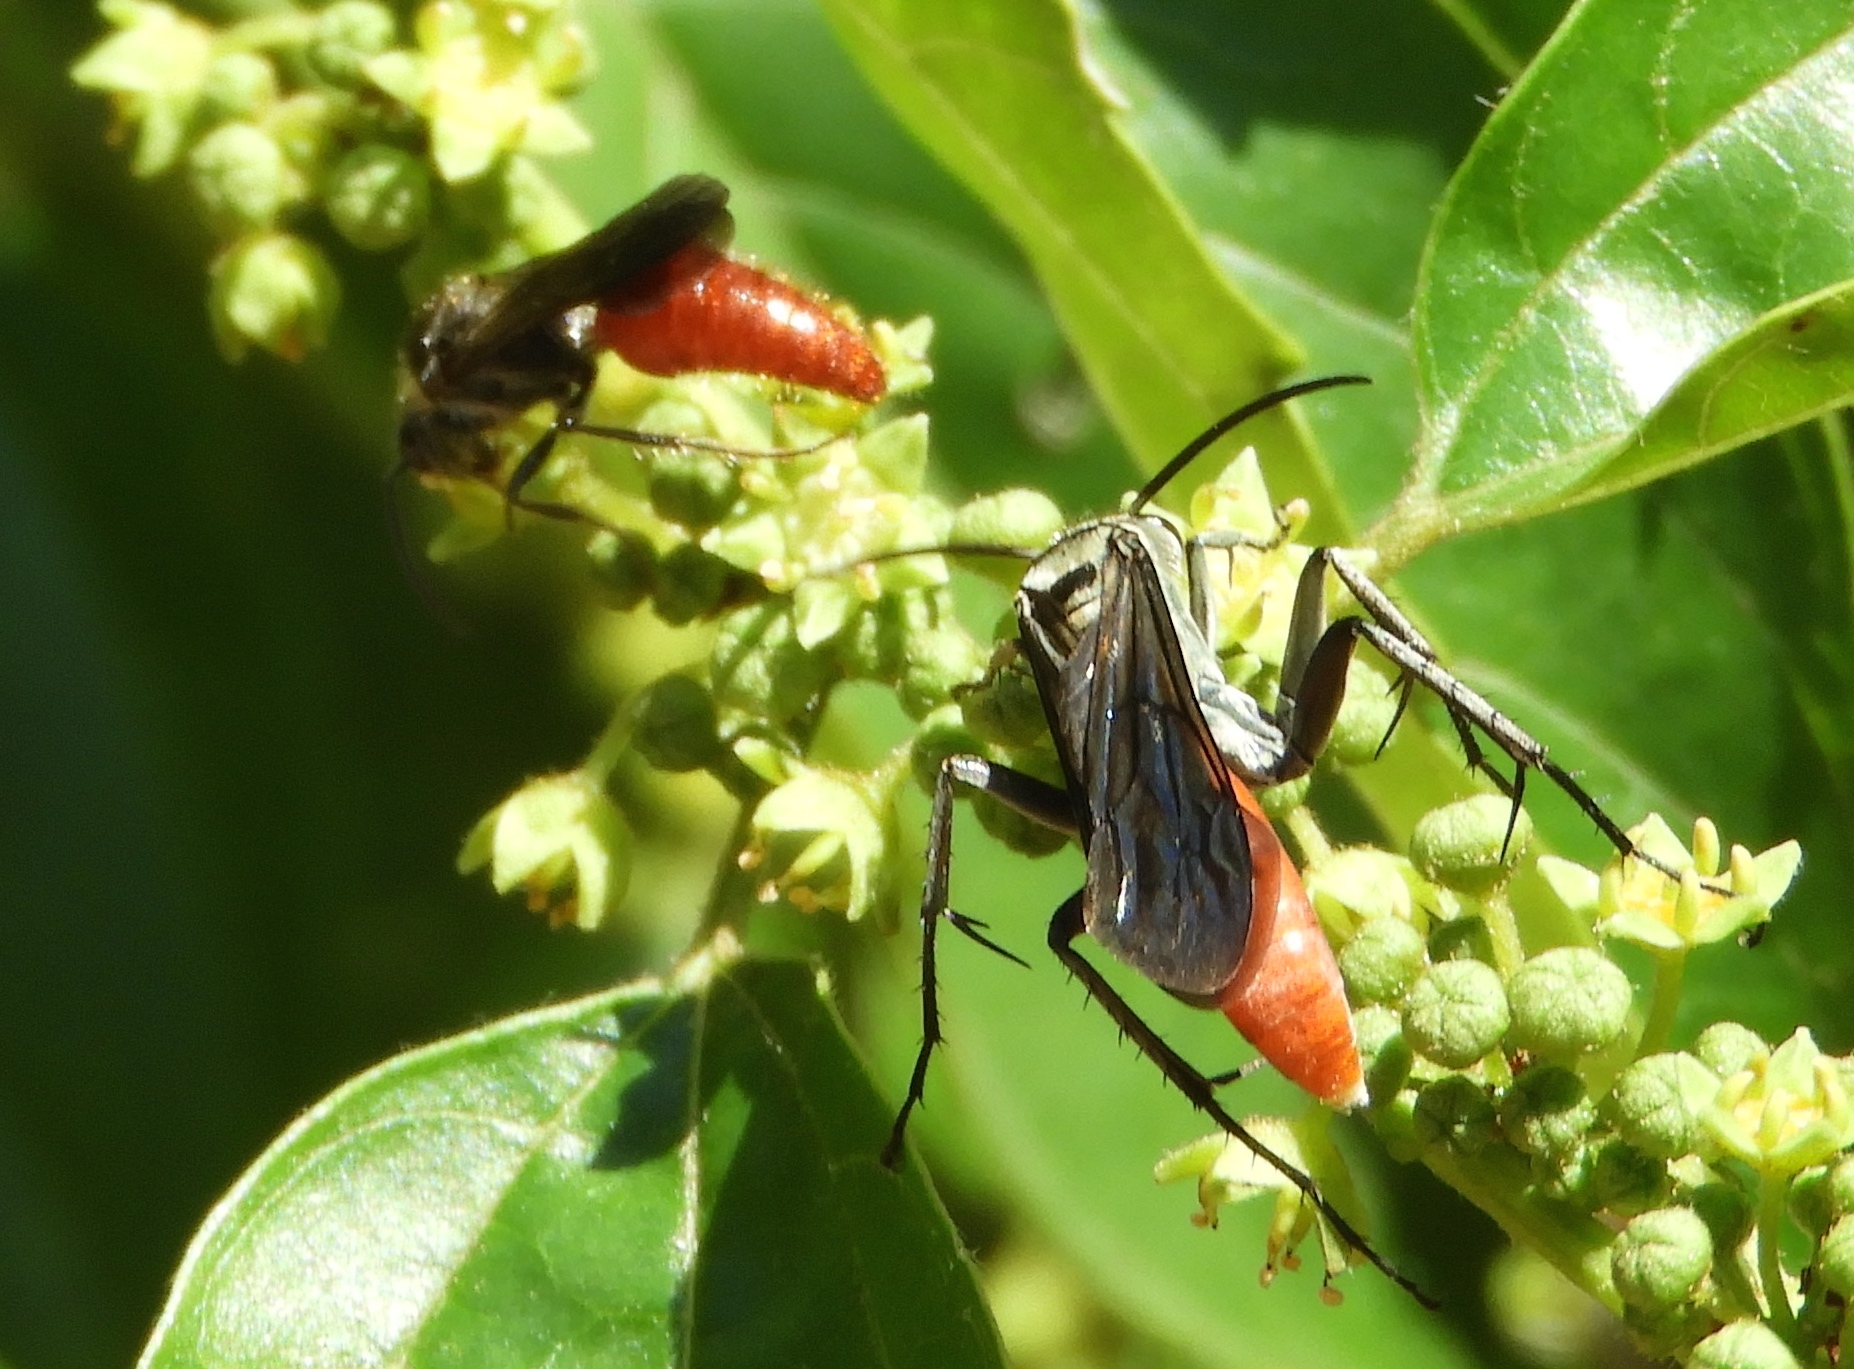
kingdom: Animalia
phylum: Arthropoda
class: Insecta
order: Hymenoptera
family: Mutillidae
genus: Timulla
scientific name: Timulla
